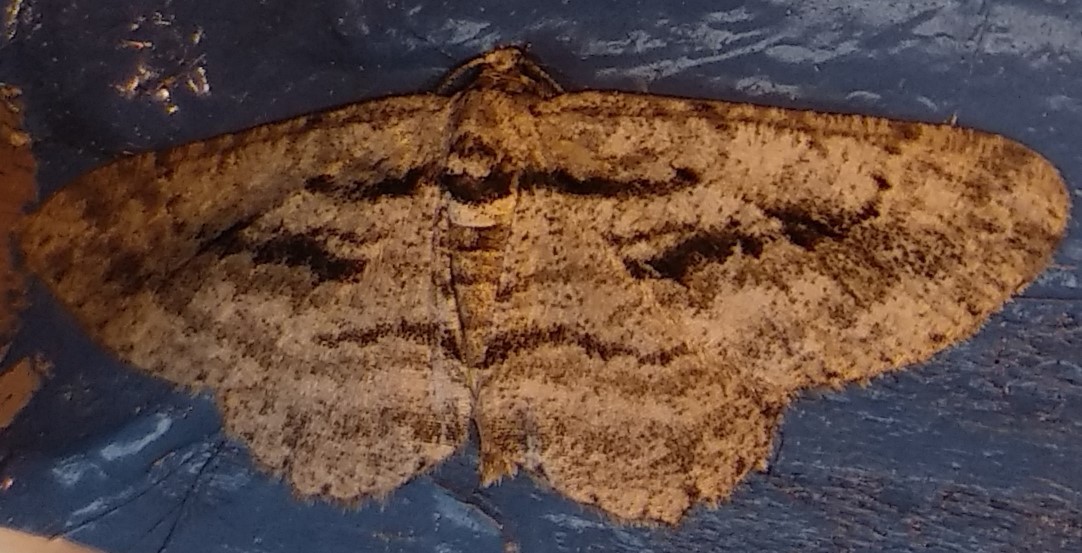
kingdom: Animalia
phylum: Arthropoda
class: Insecta
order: Lepidoptera
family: Geometridae
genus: Anavitrinella
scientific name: Anavitrinella pampinaria
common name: Common gray
